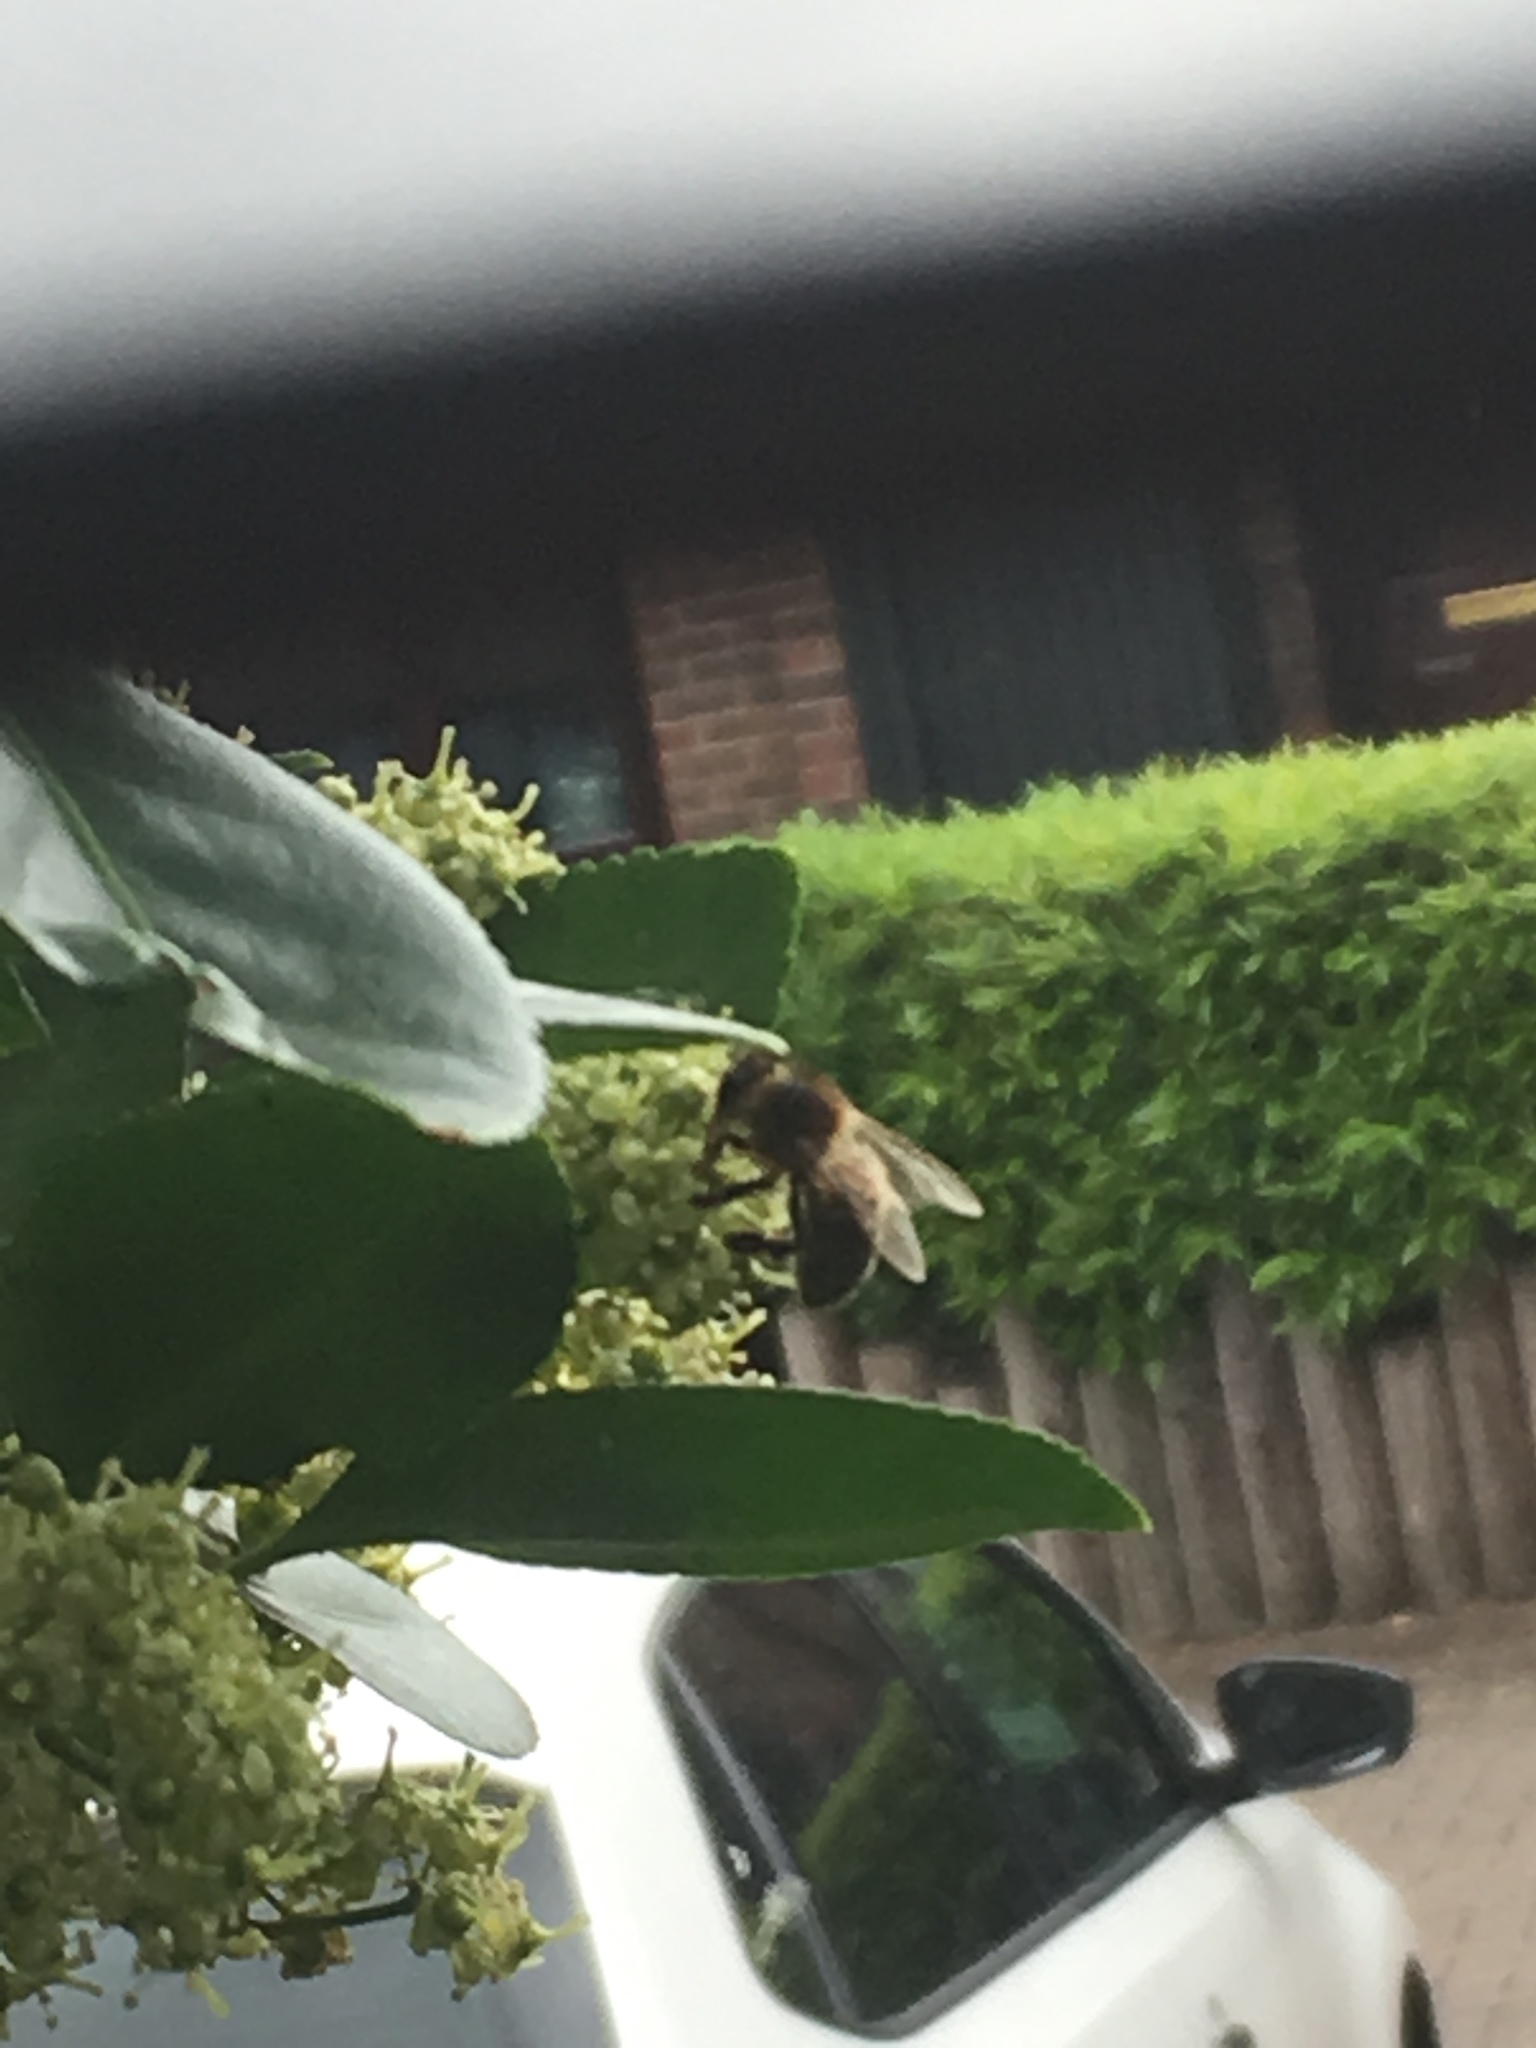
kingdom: Animalia
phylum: Arthropoda
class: Insecta
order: Hymenoptera
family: Apidae
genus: Apis
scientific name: Apis mellifera
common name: Honey bee
